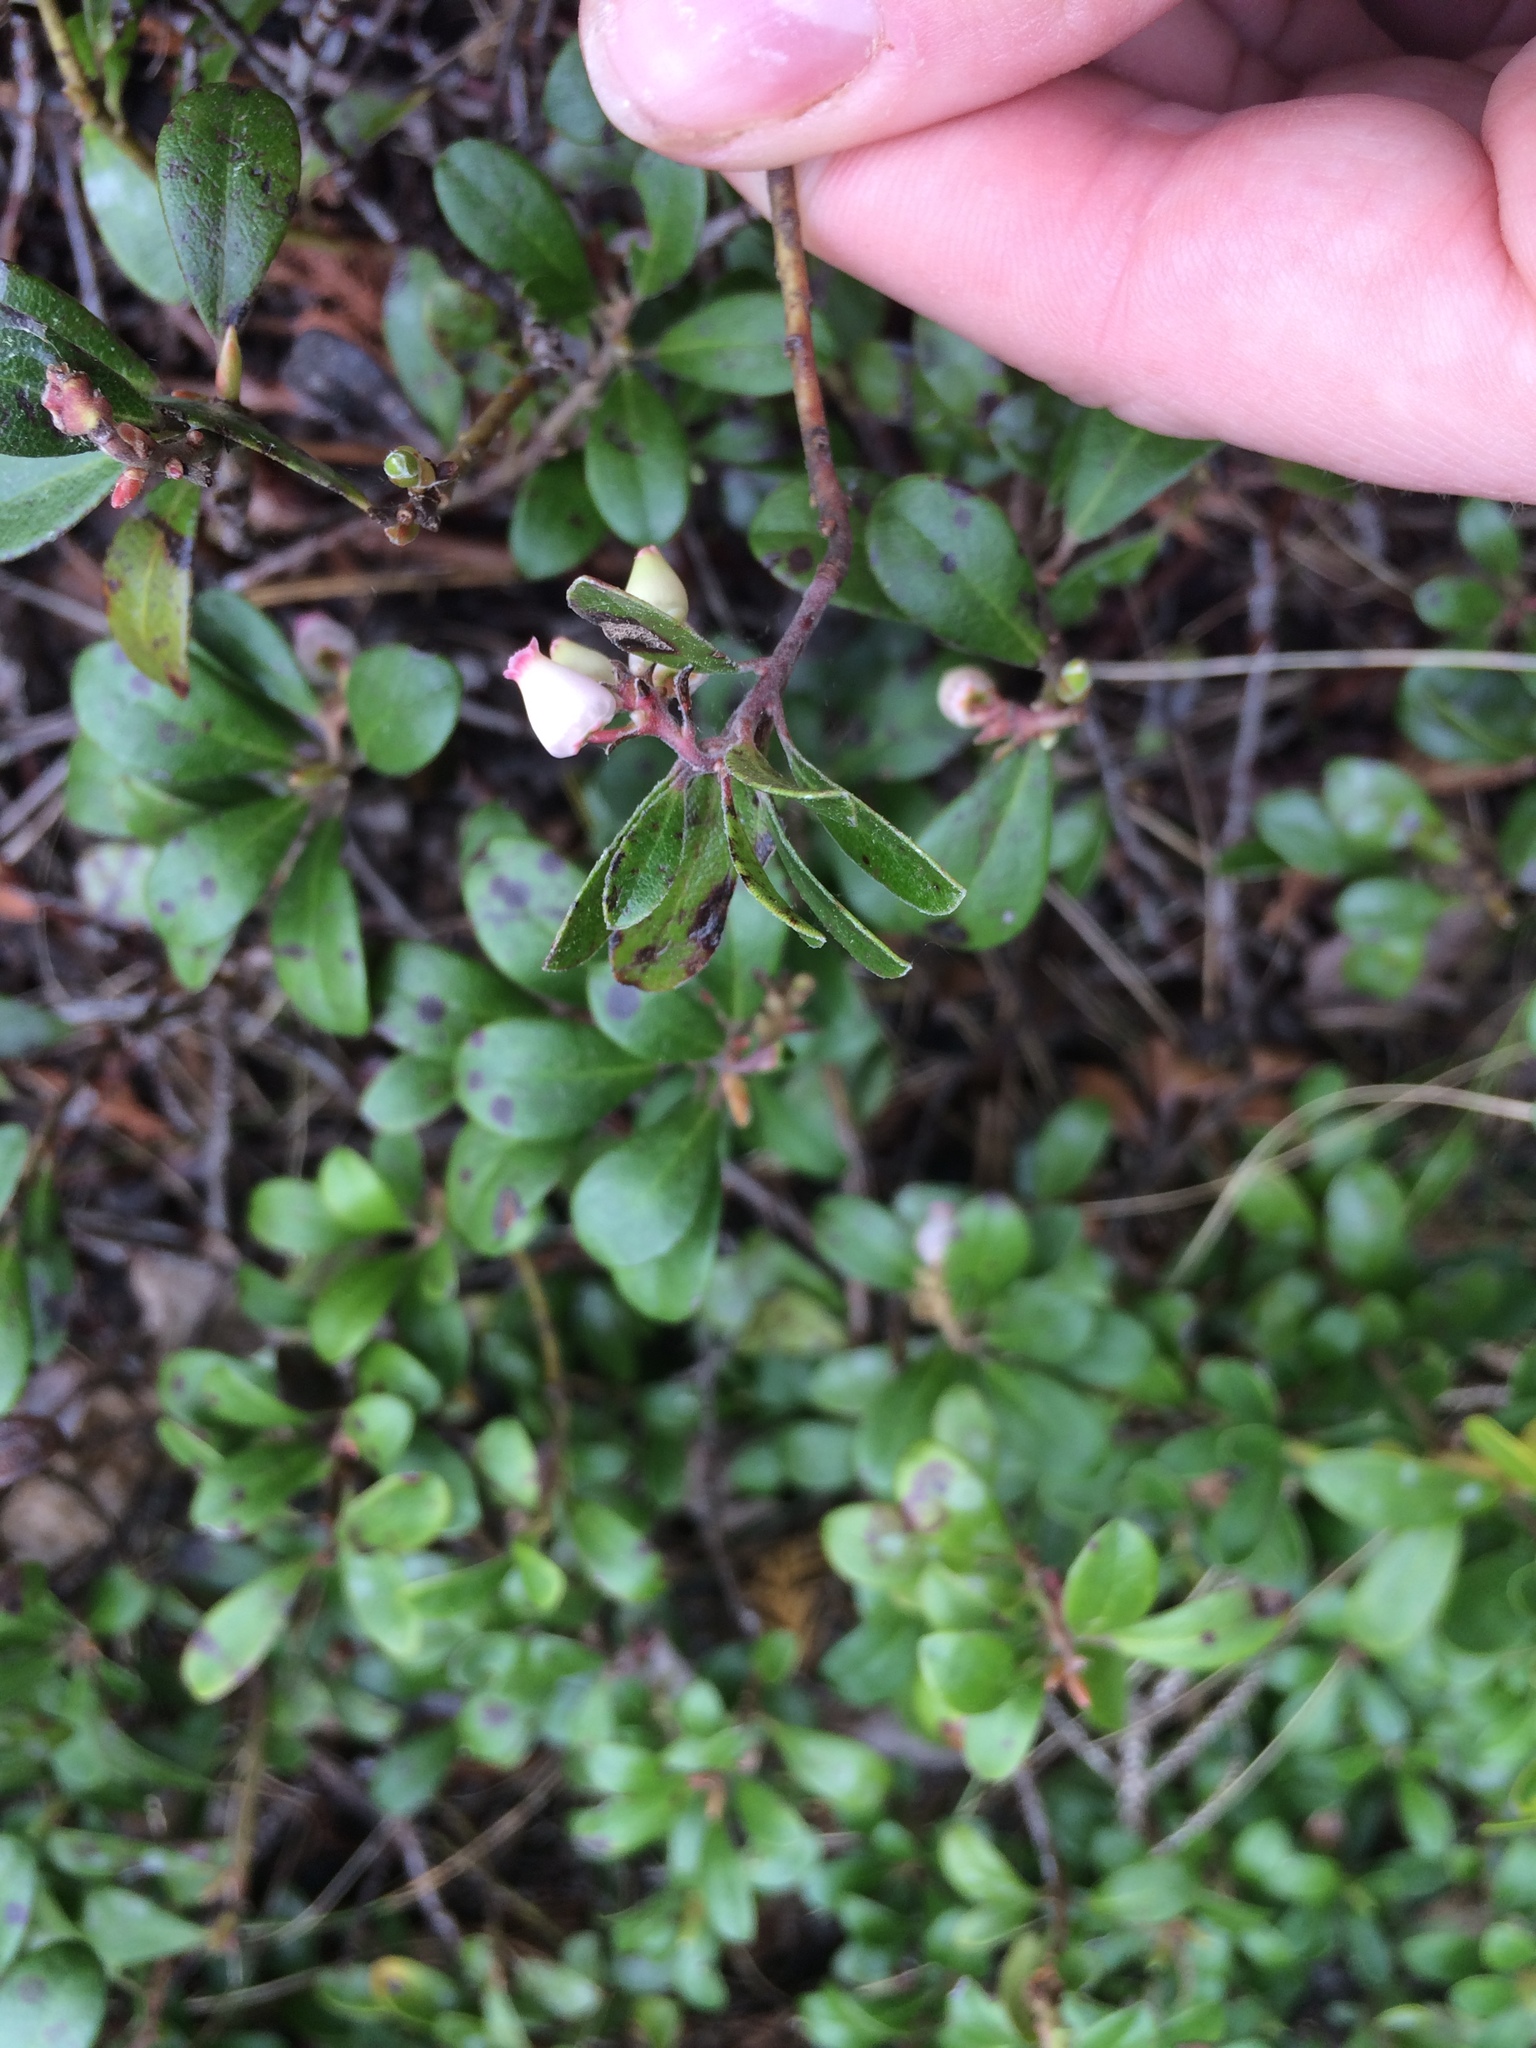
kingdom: Plantae
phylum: Tracheophyta
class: Magnoliopsida
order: Ericales
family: Ericaceae
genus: Arctostaphylos
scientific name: Arctostaphylos uva-ursi
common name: Bearberry
